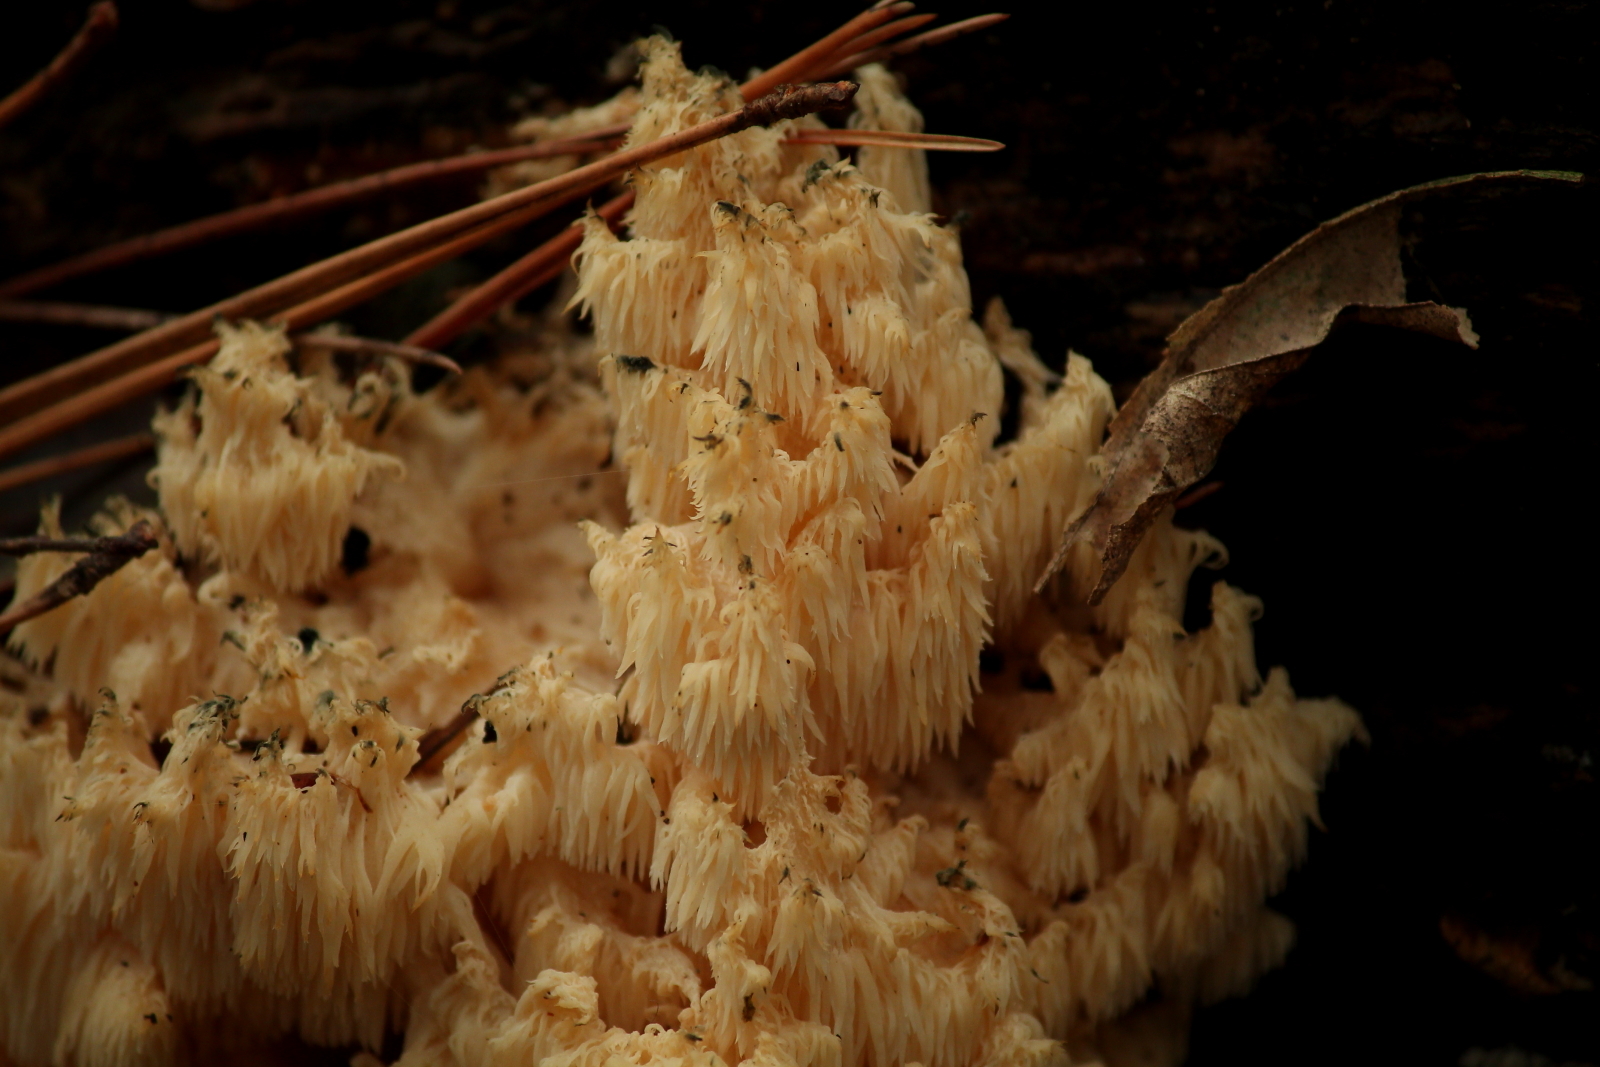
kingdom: Fungi
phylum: Basidiomycota
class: Agaricomycetes
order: Russulales
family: Hericiaceae
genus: Hericium
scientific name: Hericium coralloides
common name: Coral tooth
